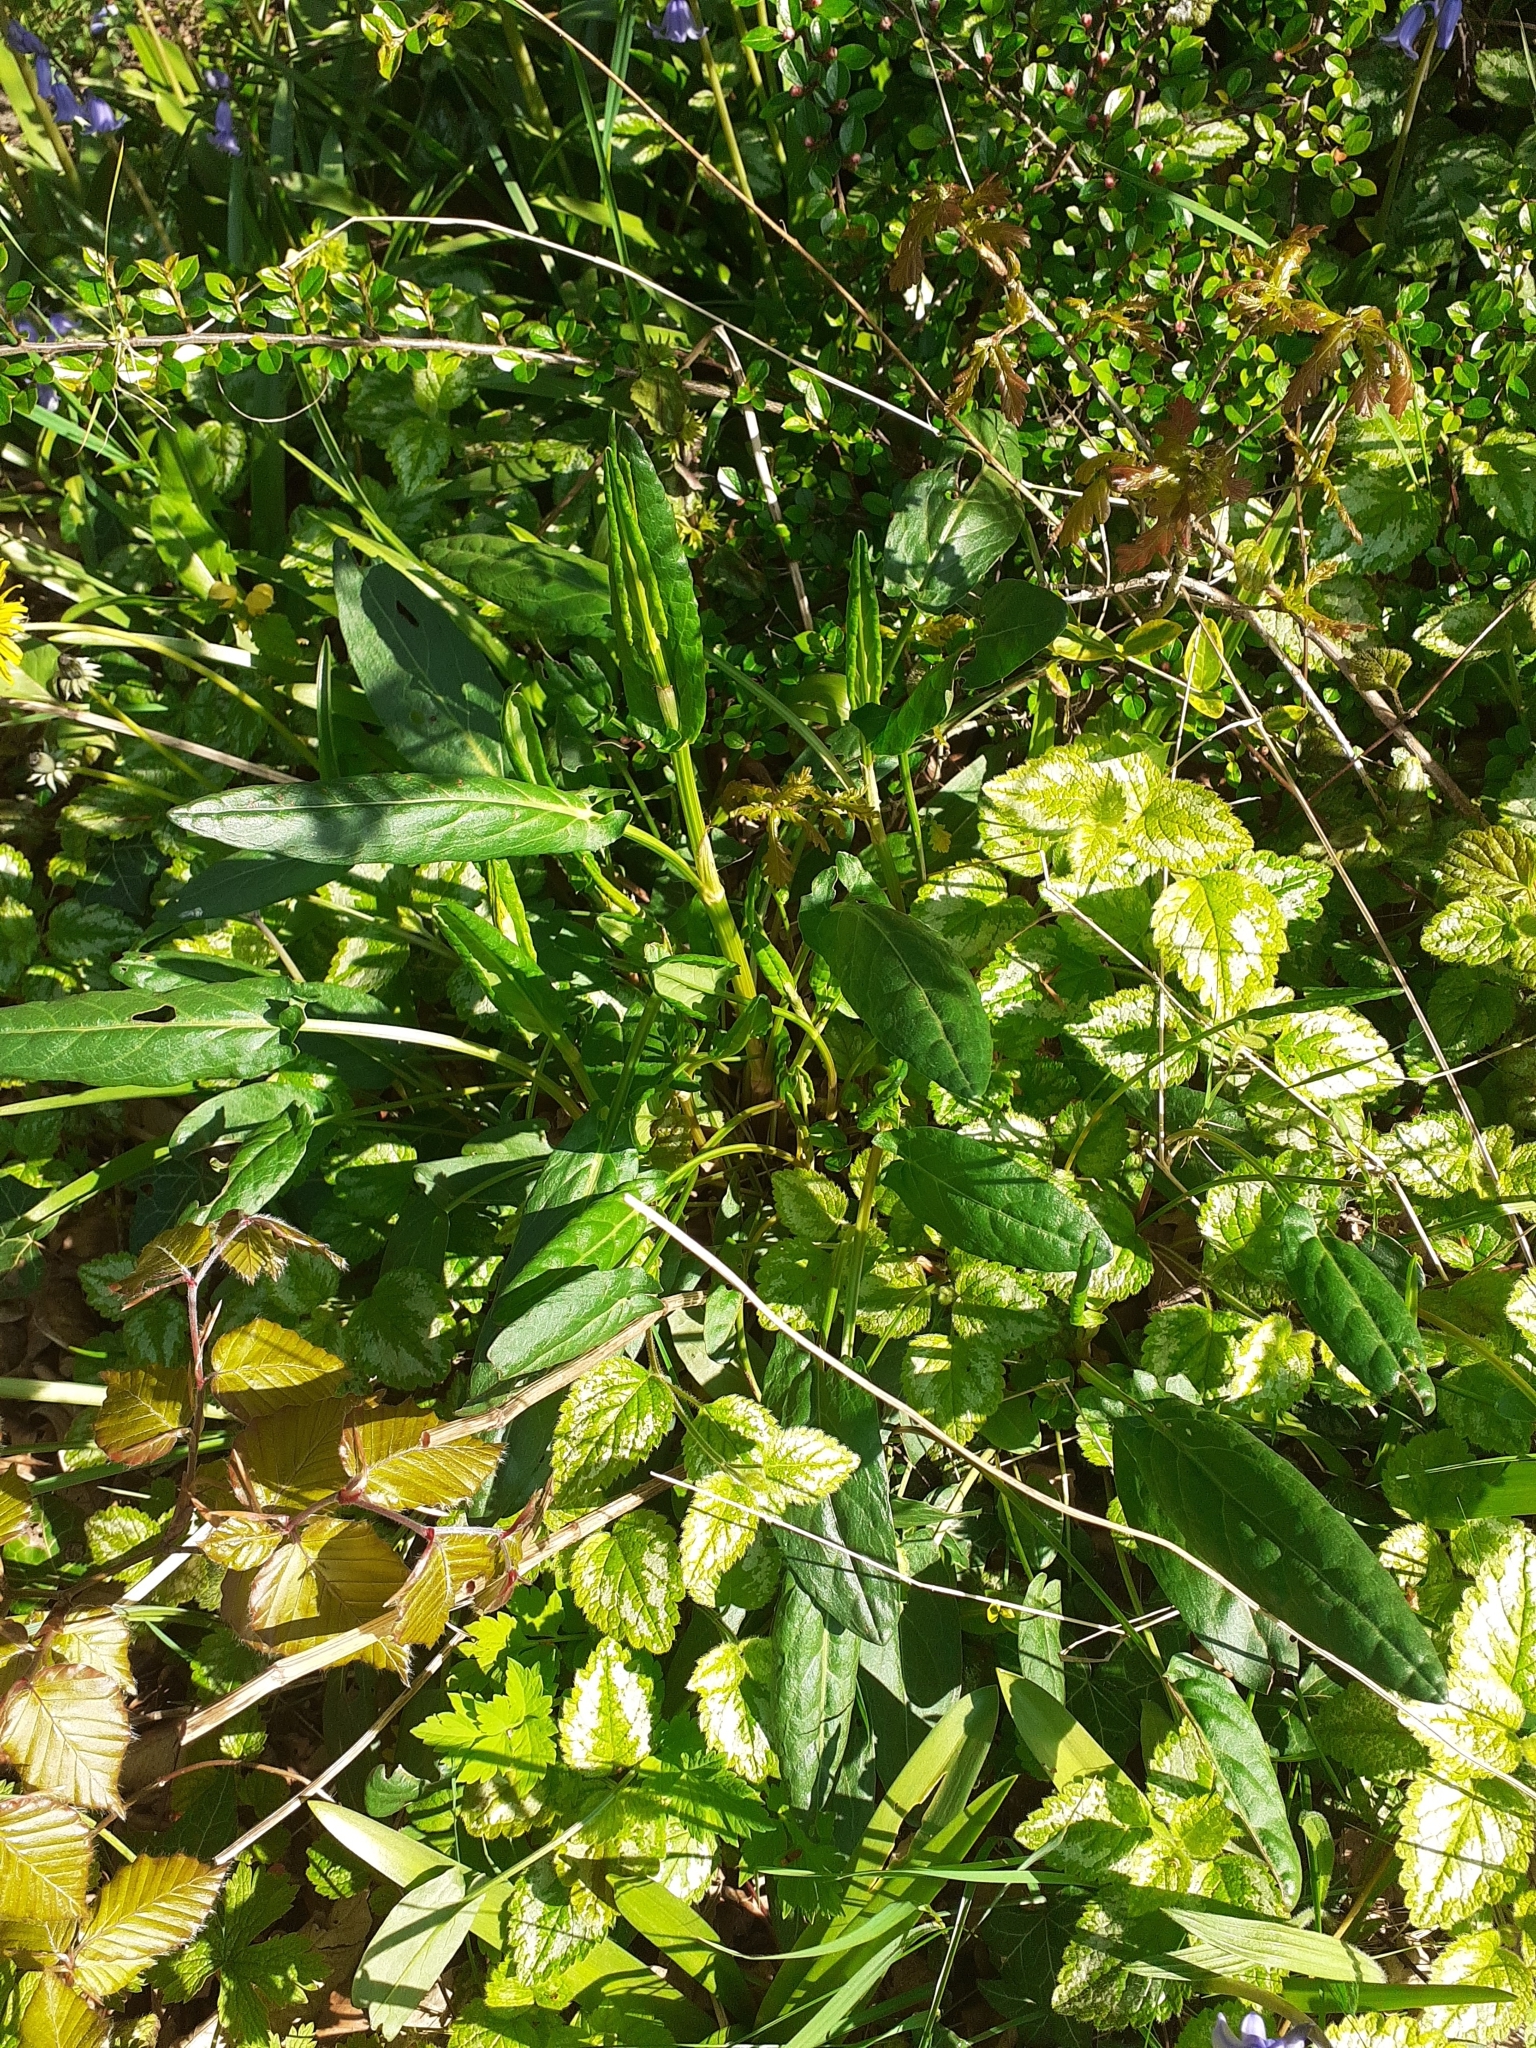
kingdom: Plantae
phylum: Tracheophyta
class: Magnoliopsida
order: Caryophyllales
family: Polygonaceae
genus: Rumex
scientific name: Rumex acetosa
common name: Garden sorrel
